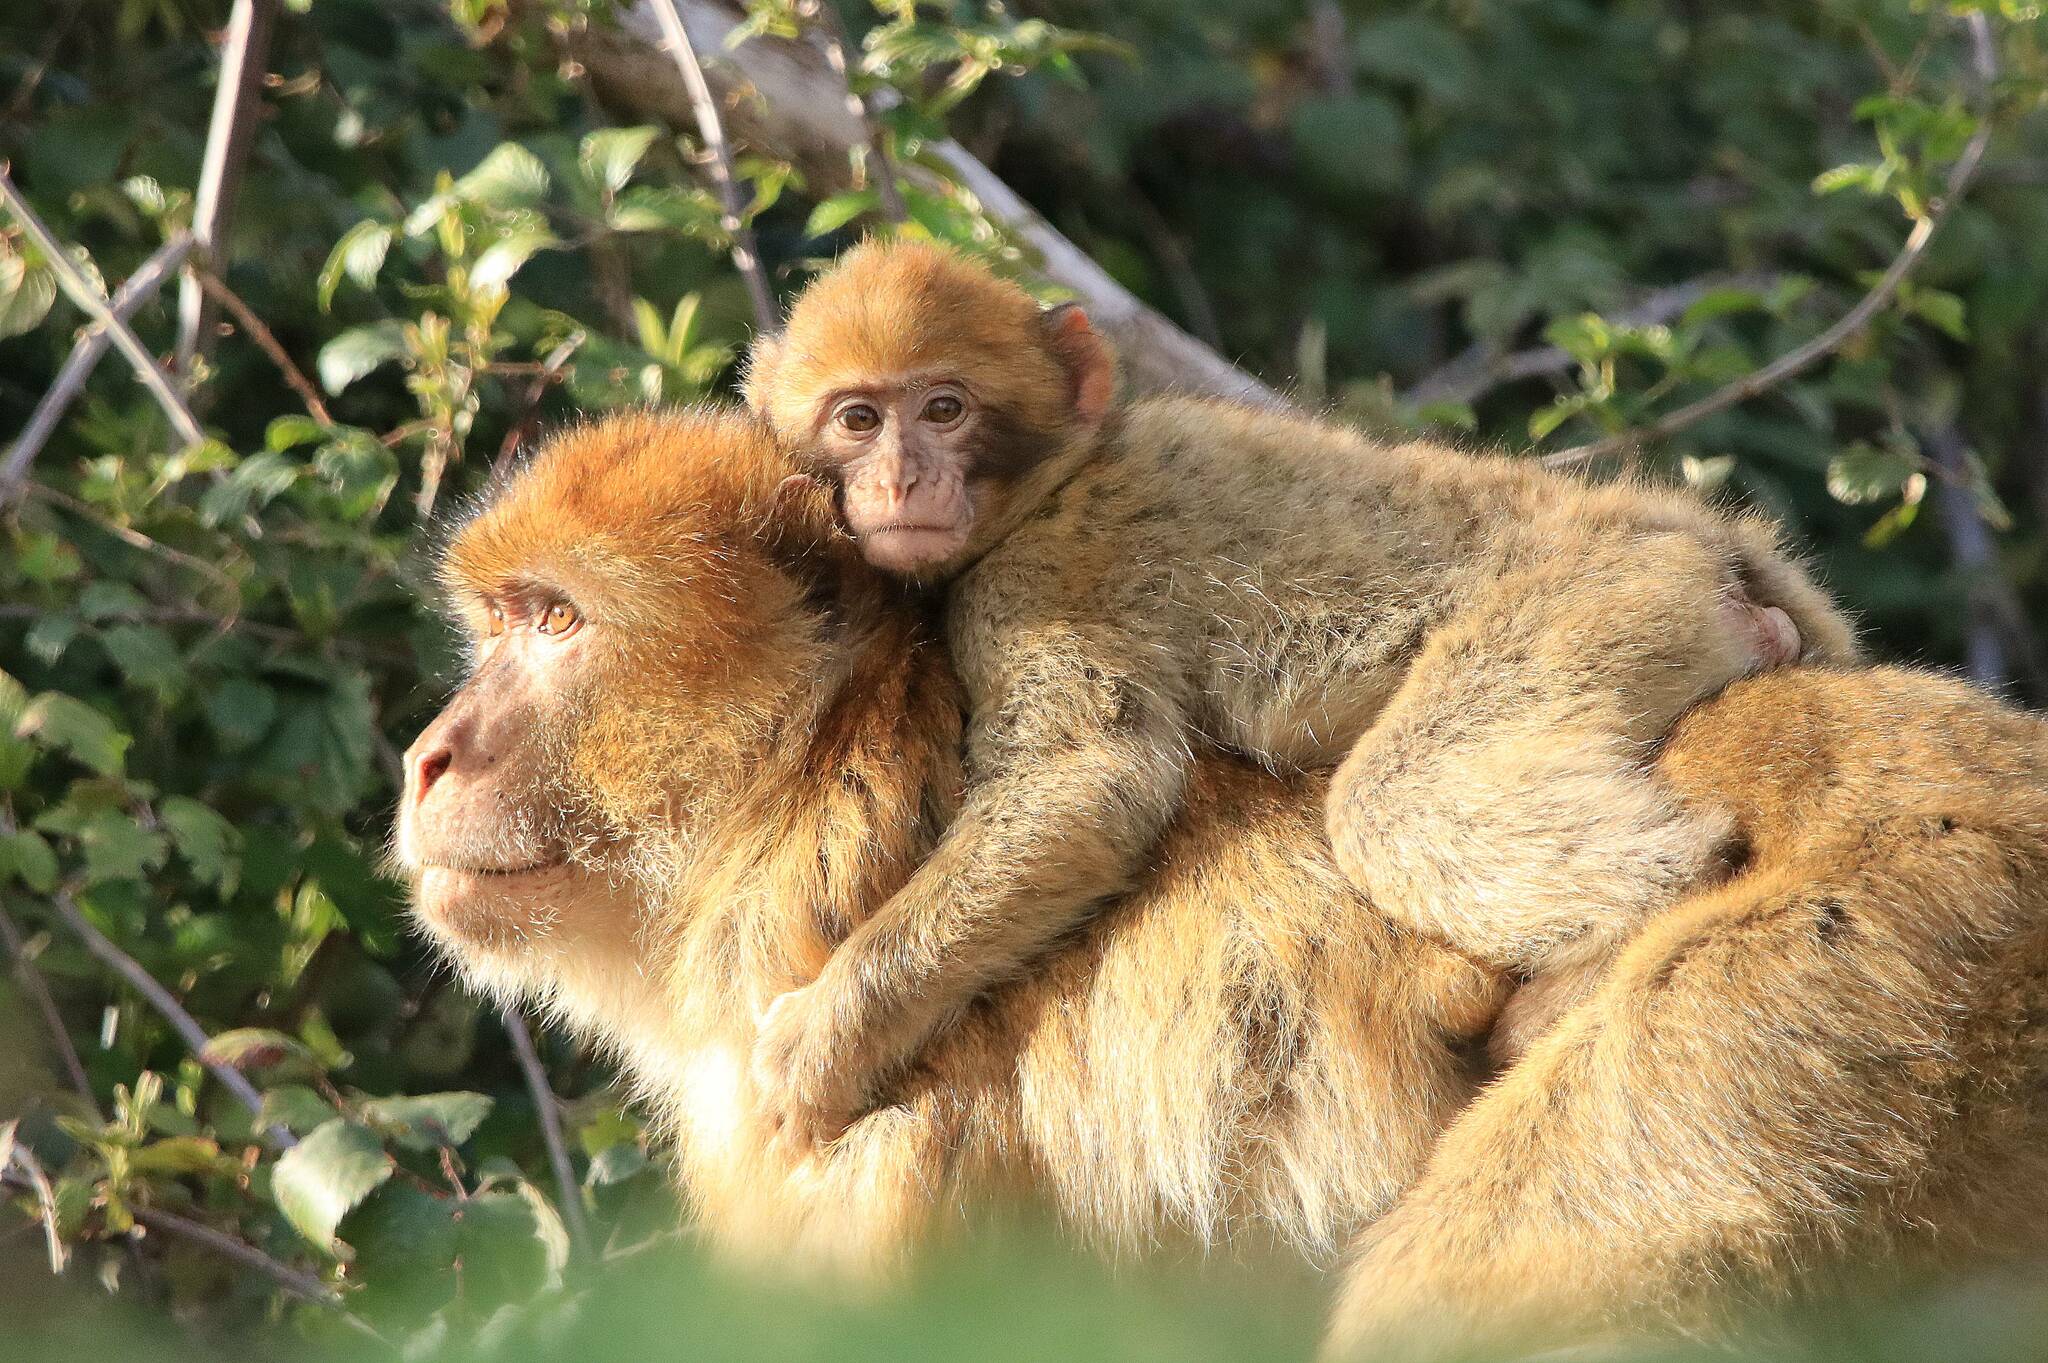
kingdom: Animalia
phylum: Chordata
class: Mammalia
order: Primates
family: Cercopithecidae
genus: Macaca
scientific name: Macaca sylvanus
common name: Barbary macaque
